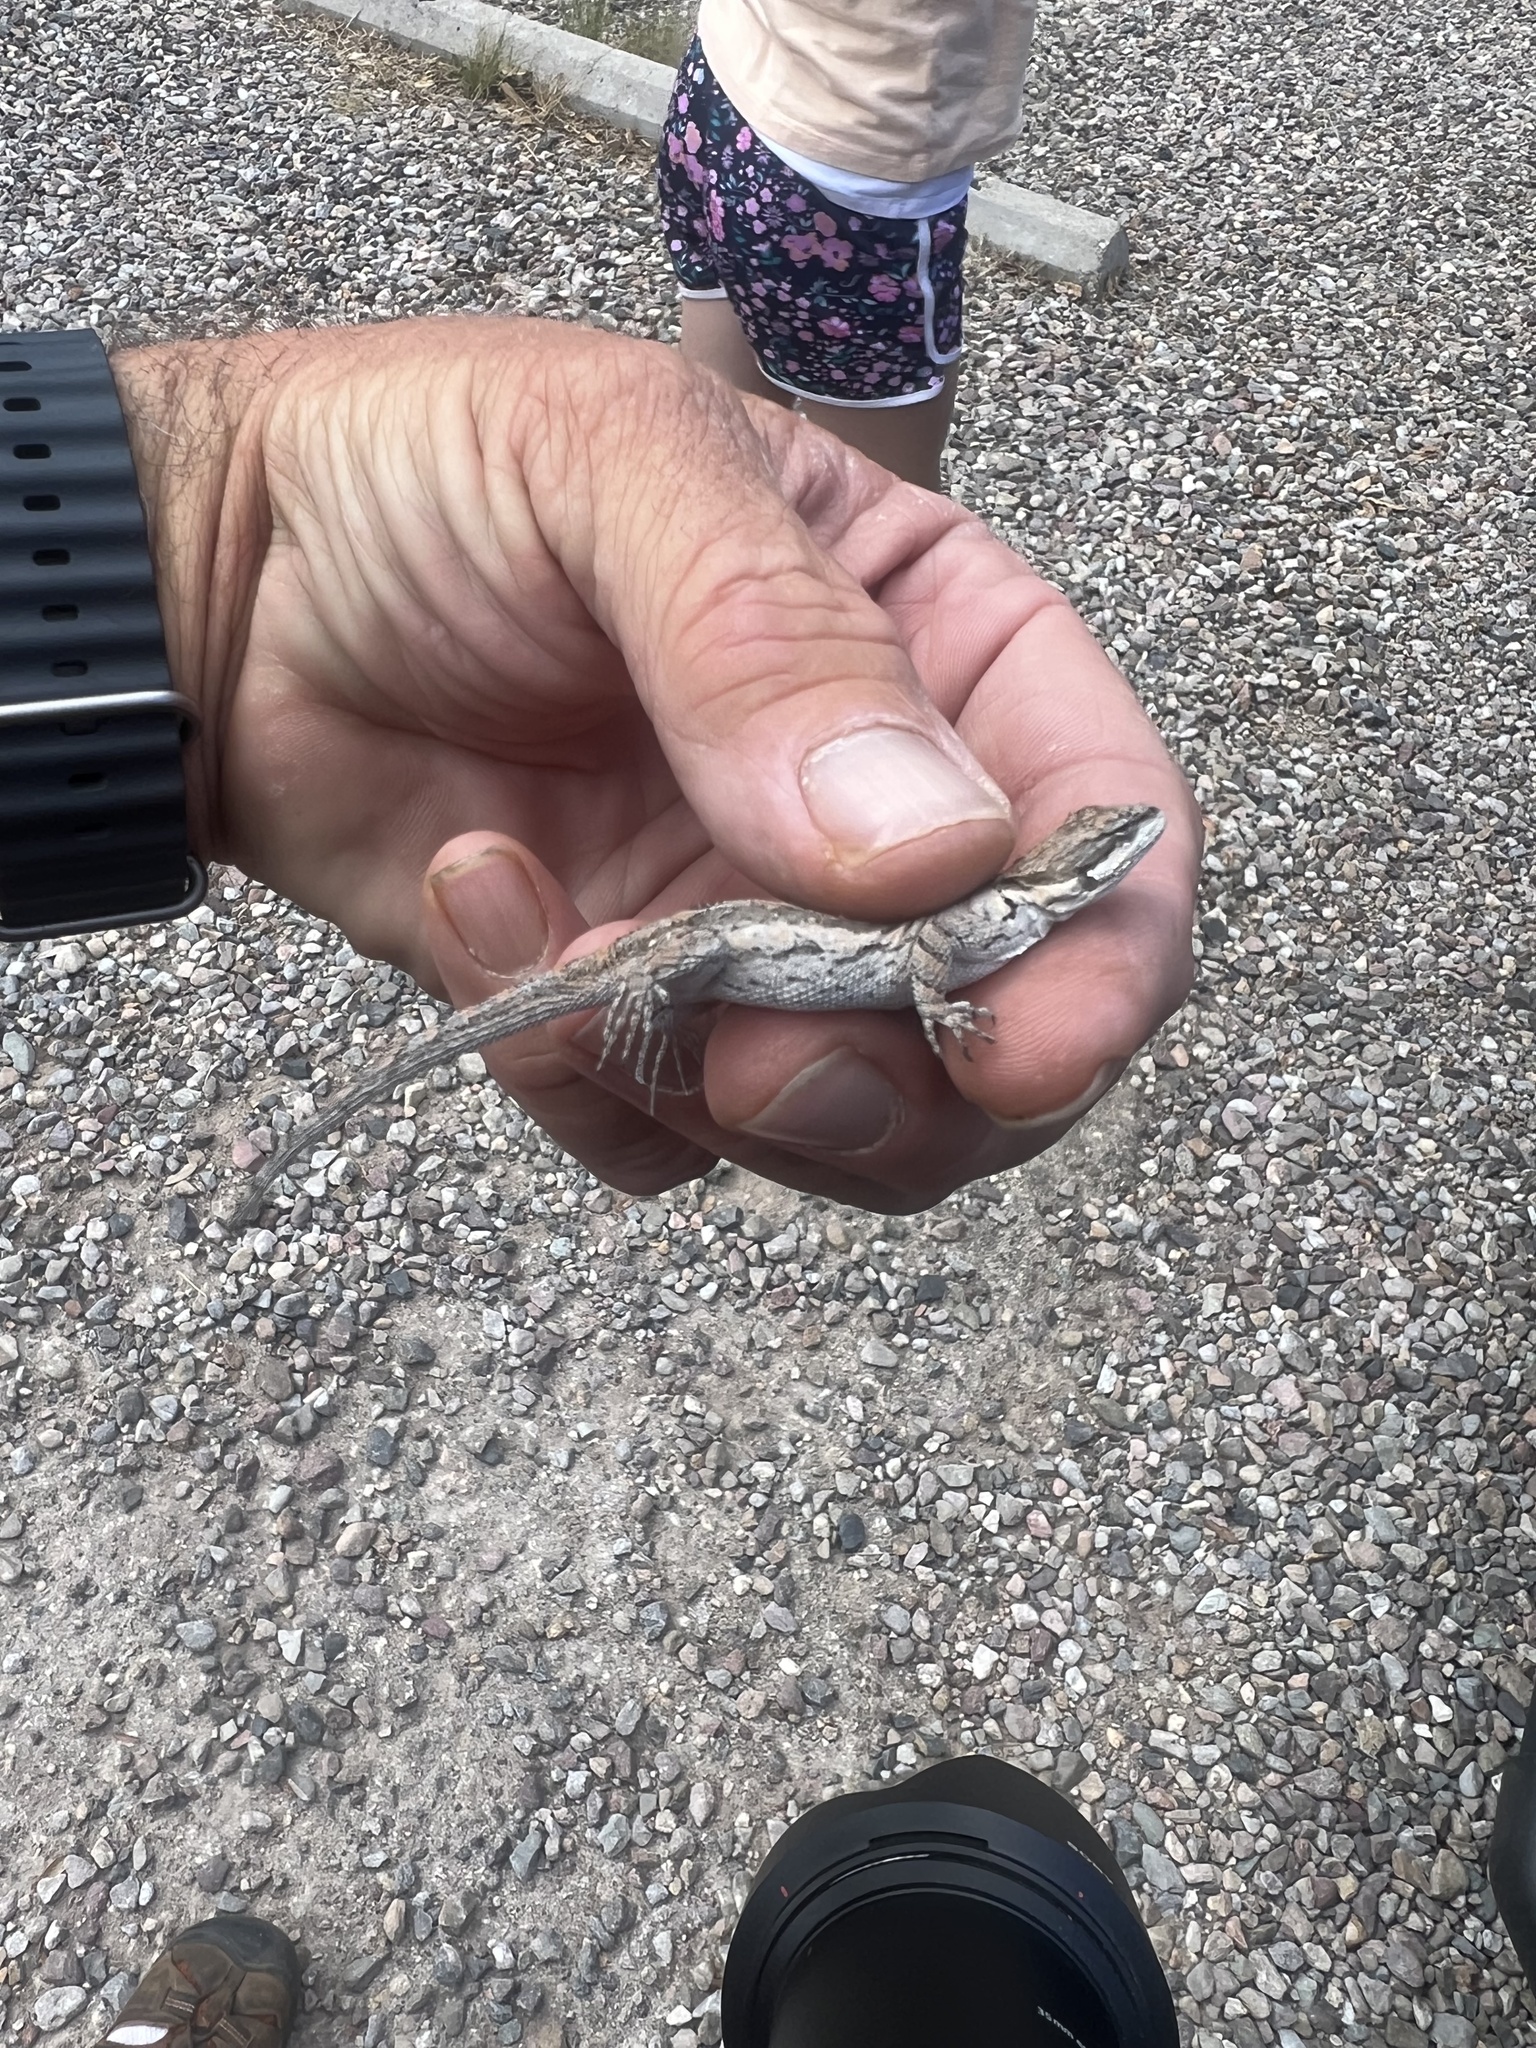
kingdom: Animalia
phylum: Chordata
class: Squamata
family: Phrynosomatidae
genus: Urosaurus
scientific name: Urosaurus ornatus
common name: Ornate tree lizard
